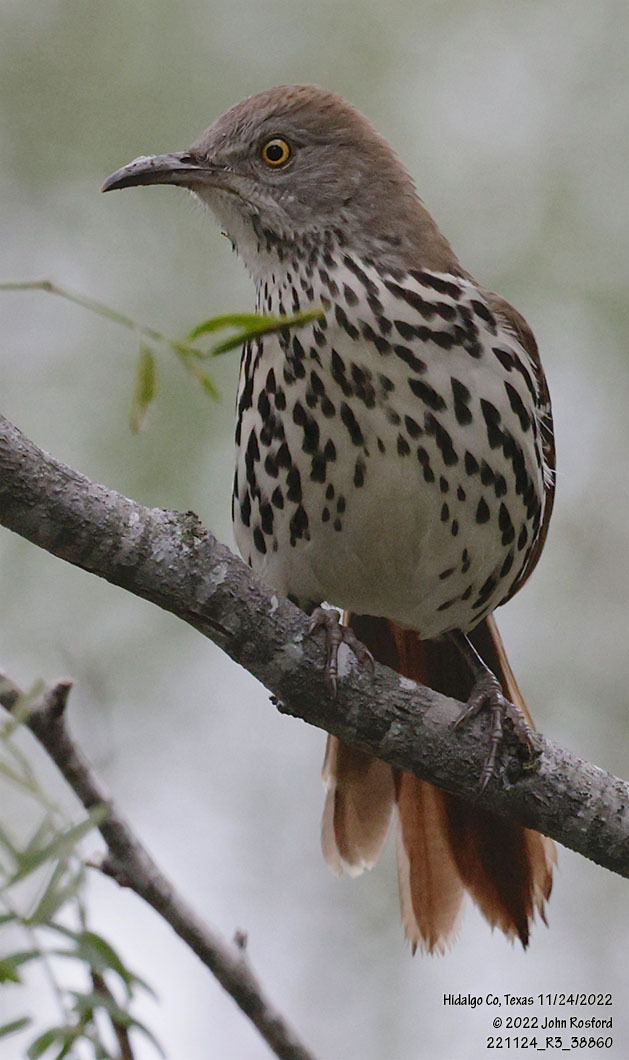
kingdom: Animalia
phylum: Chordata
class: Aves
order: Passeriformes
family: Mimidae
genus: Toxostoma
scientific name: Toxostoma longirostre
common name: Long-billed thrasher
